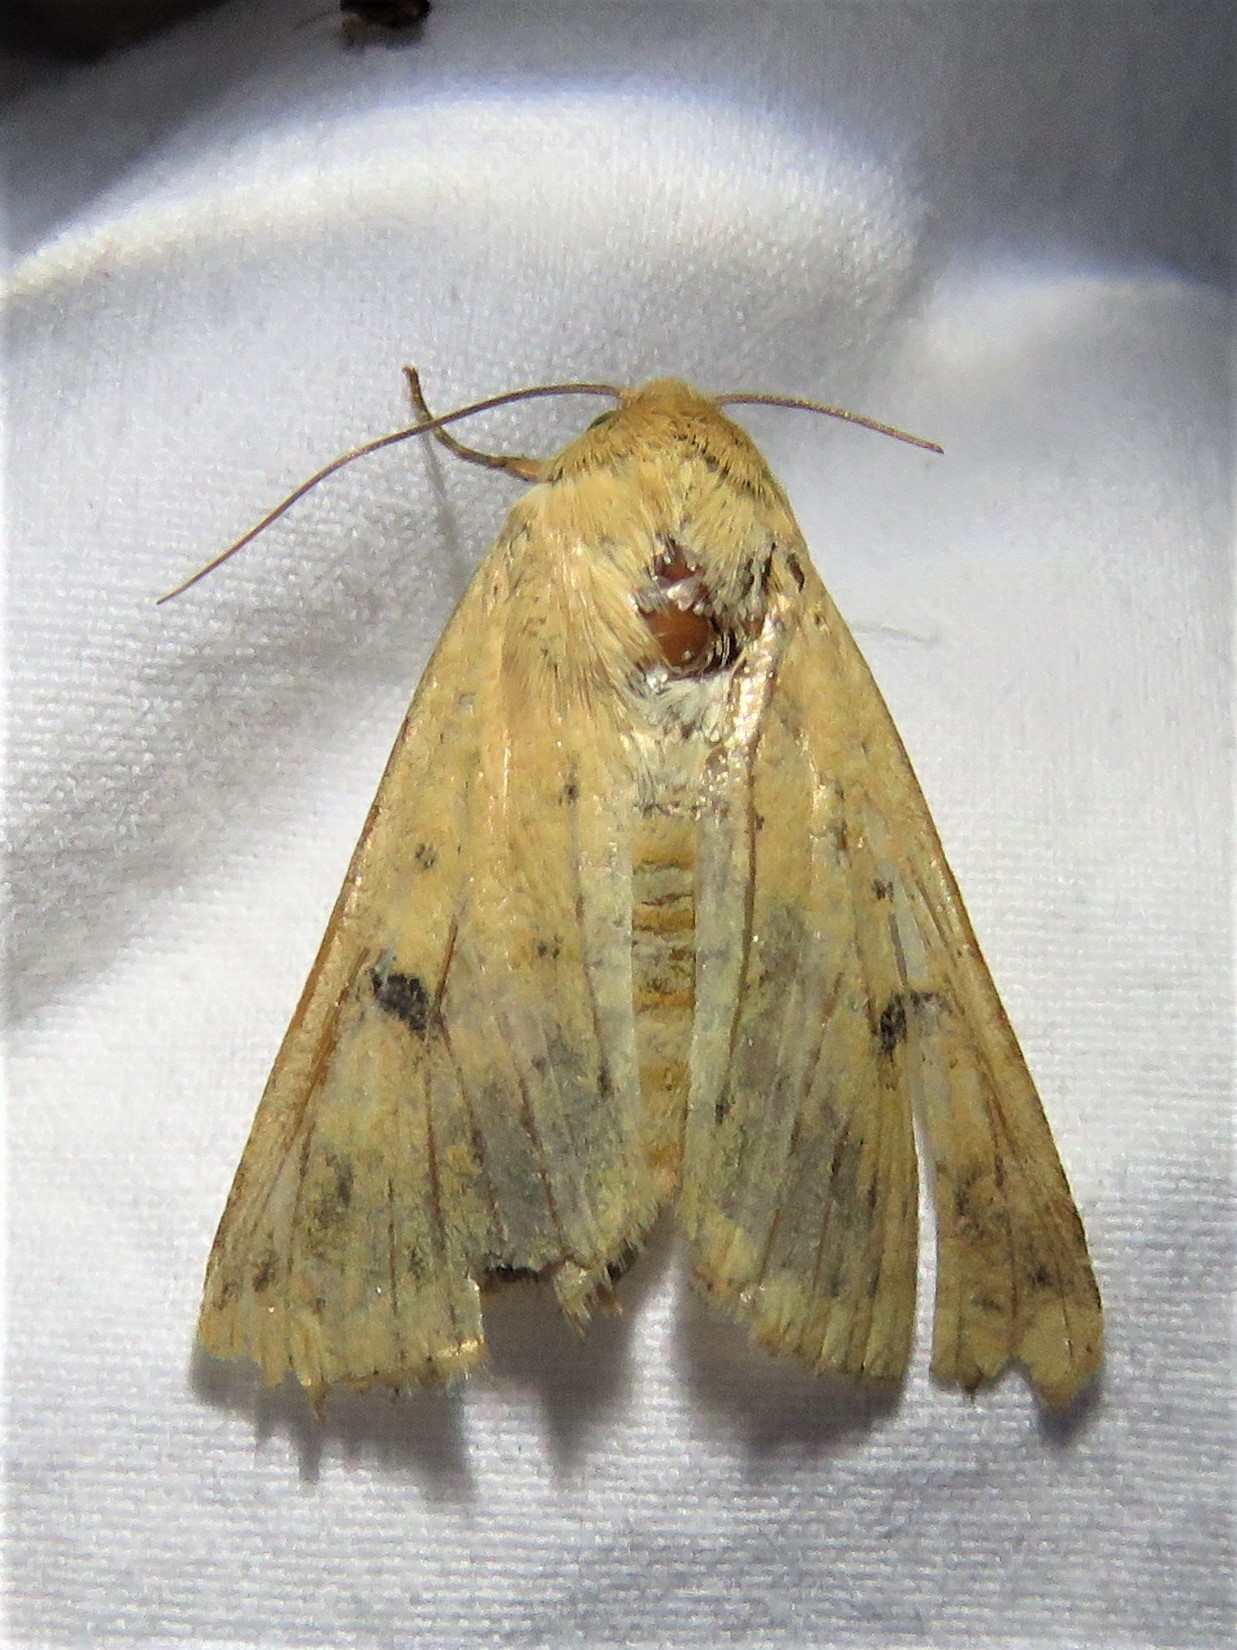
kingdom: Animalia
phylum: Arthropoda
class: Insecta
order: Lepidoptera
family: Noctuidae
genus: Helicoverpa
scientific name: Helicoverpa zea
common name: Bollworm
